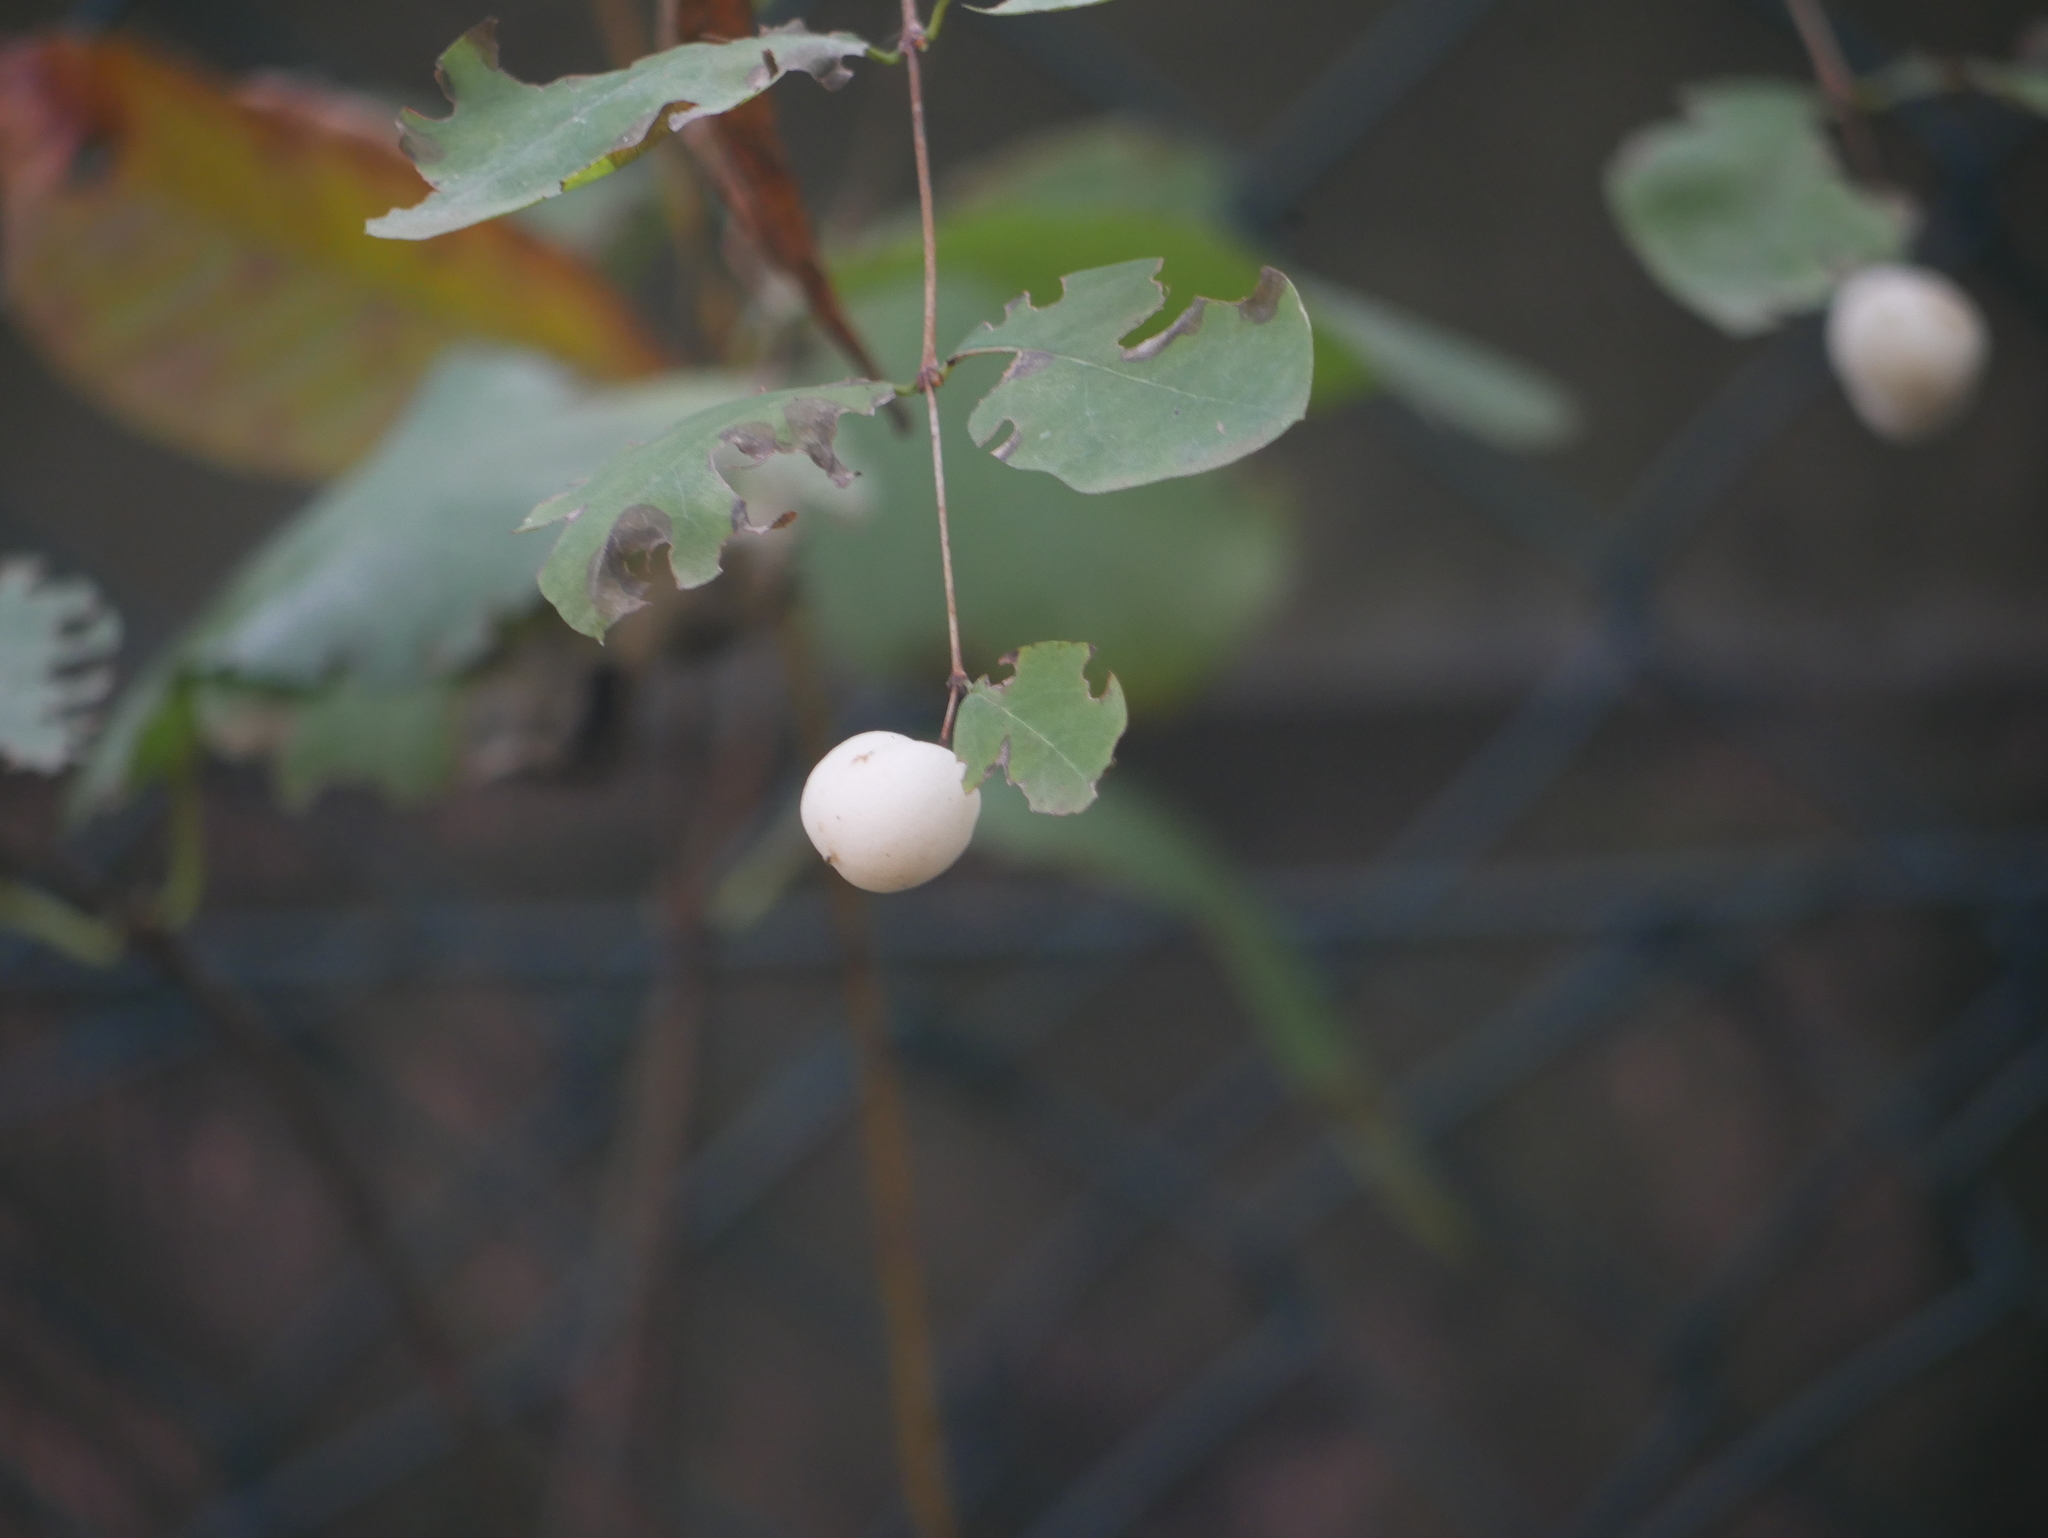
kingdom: Plantae
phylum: Tracheophyta
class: Magnoliopsida
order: Dipsacales
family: Caprifoliaceae
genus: Symphoricarpos
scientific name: Symphoricarpos albus
